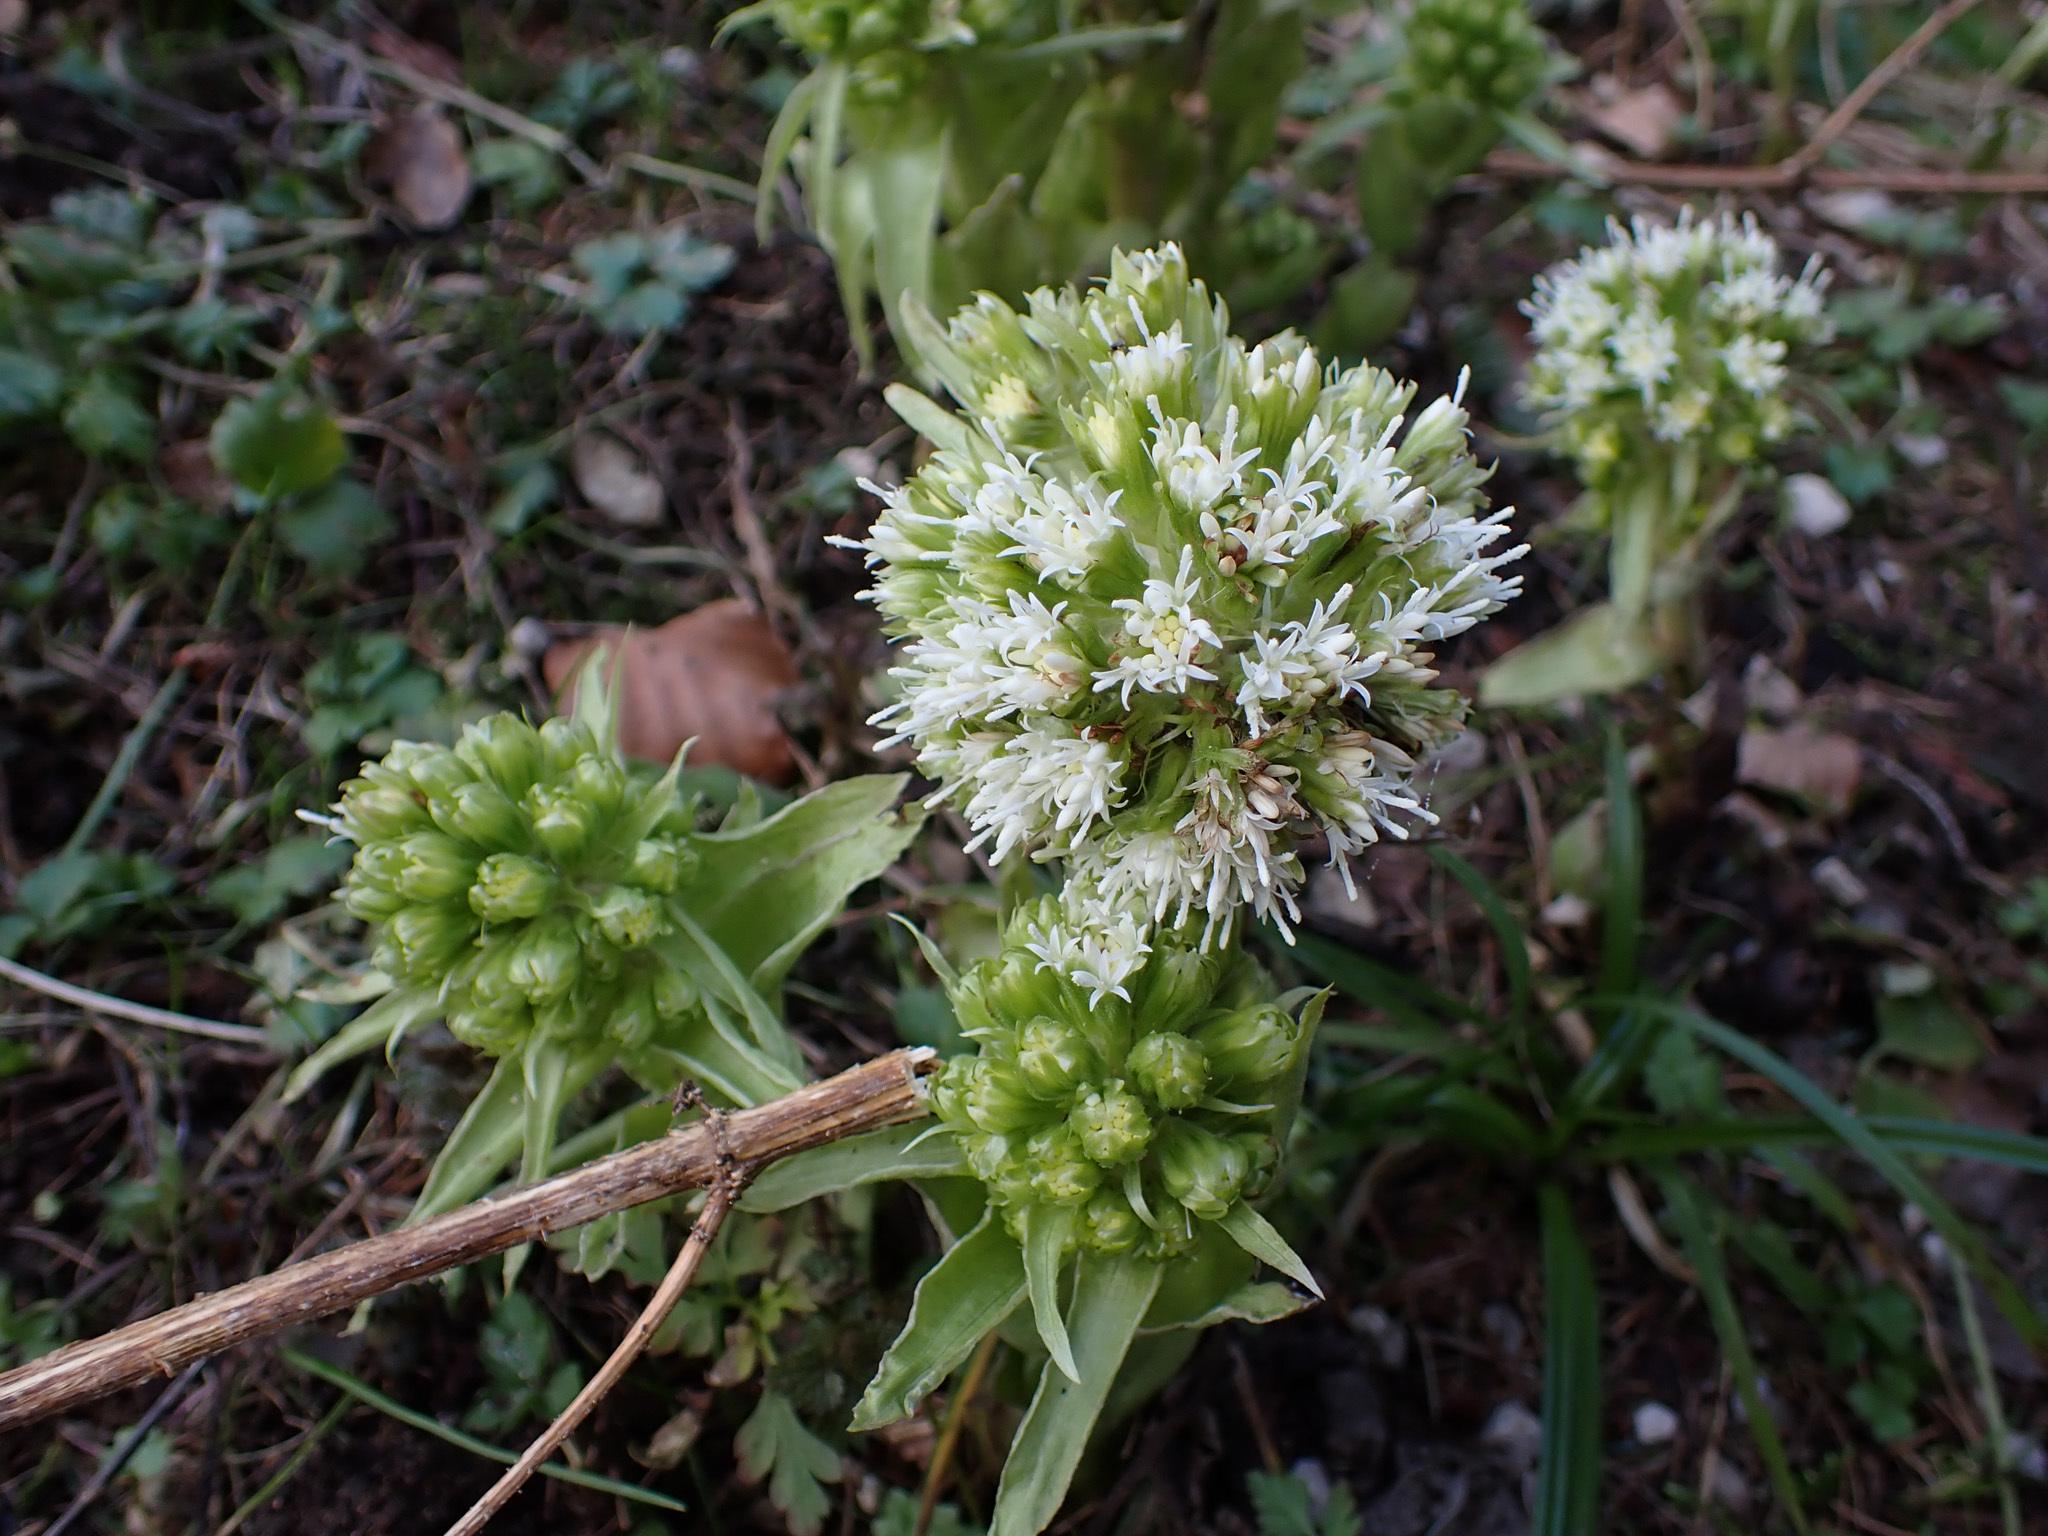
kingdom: Plantae
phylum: Tracheophyta
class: Magnoliopsida
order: Asterales
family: Asteraceae
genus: Petasites
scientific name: Petasites albus
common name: White butterbur
